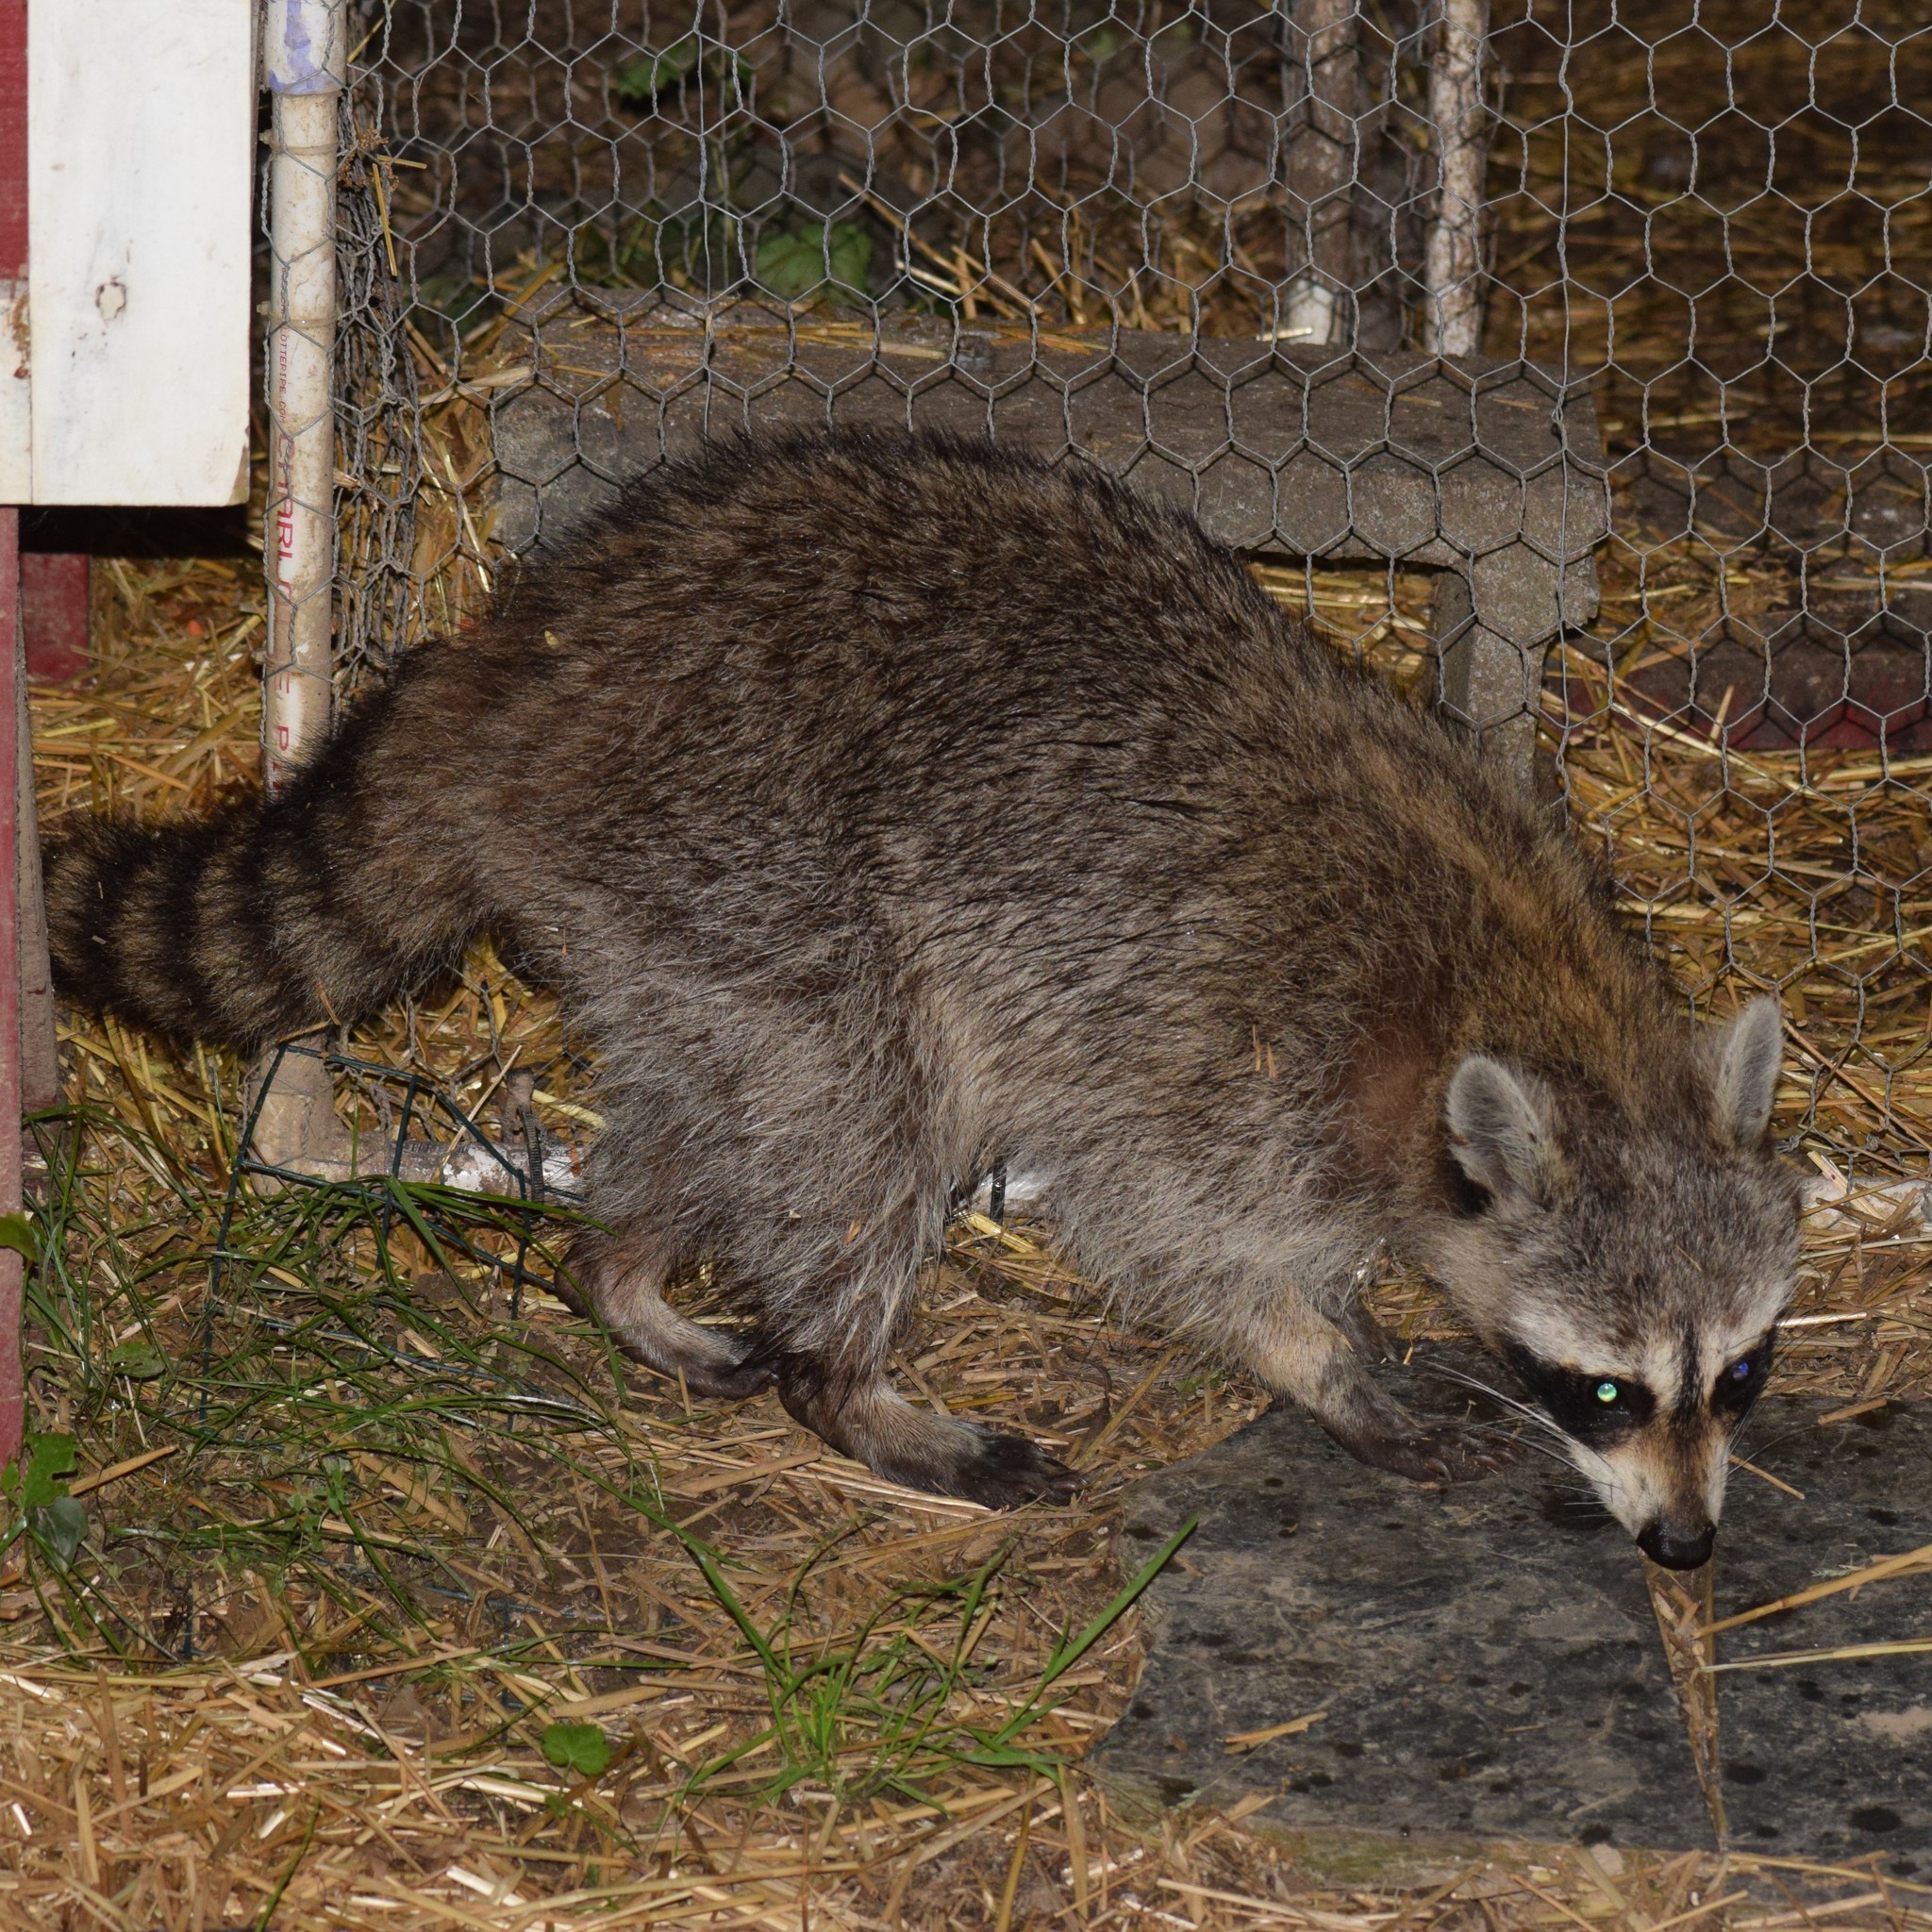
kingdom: Animalia
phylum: Chordata
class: Mammalia
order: Carnivora
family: Procyonidae
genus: Procyon
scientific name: Procyon lotor
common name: Raccoon
